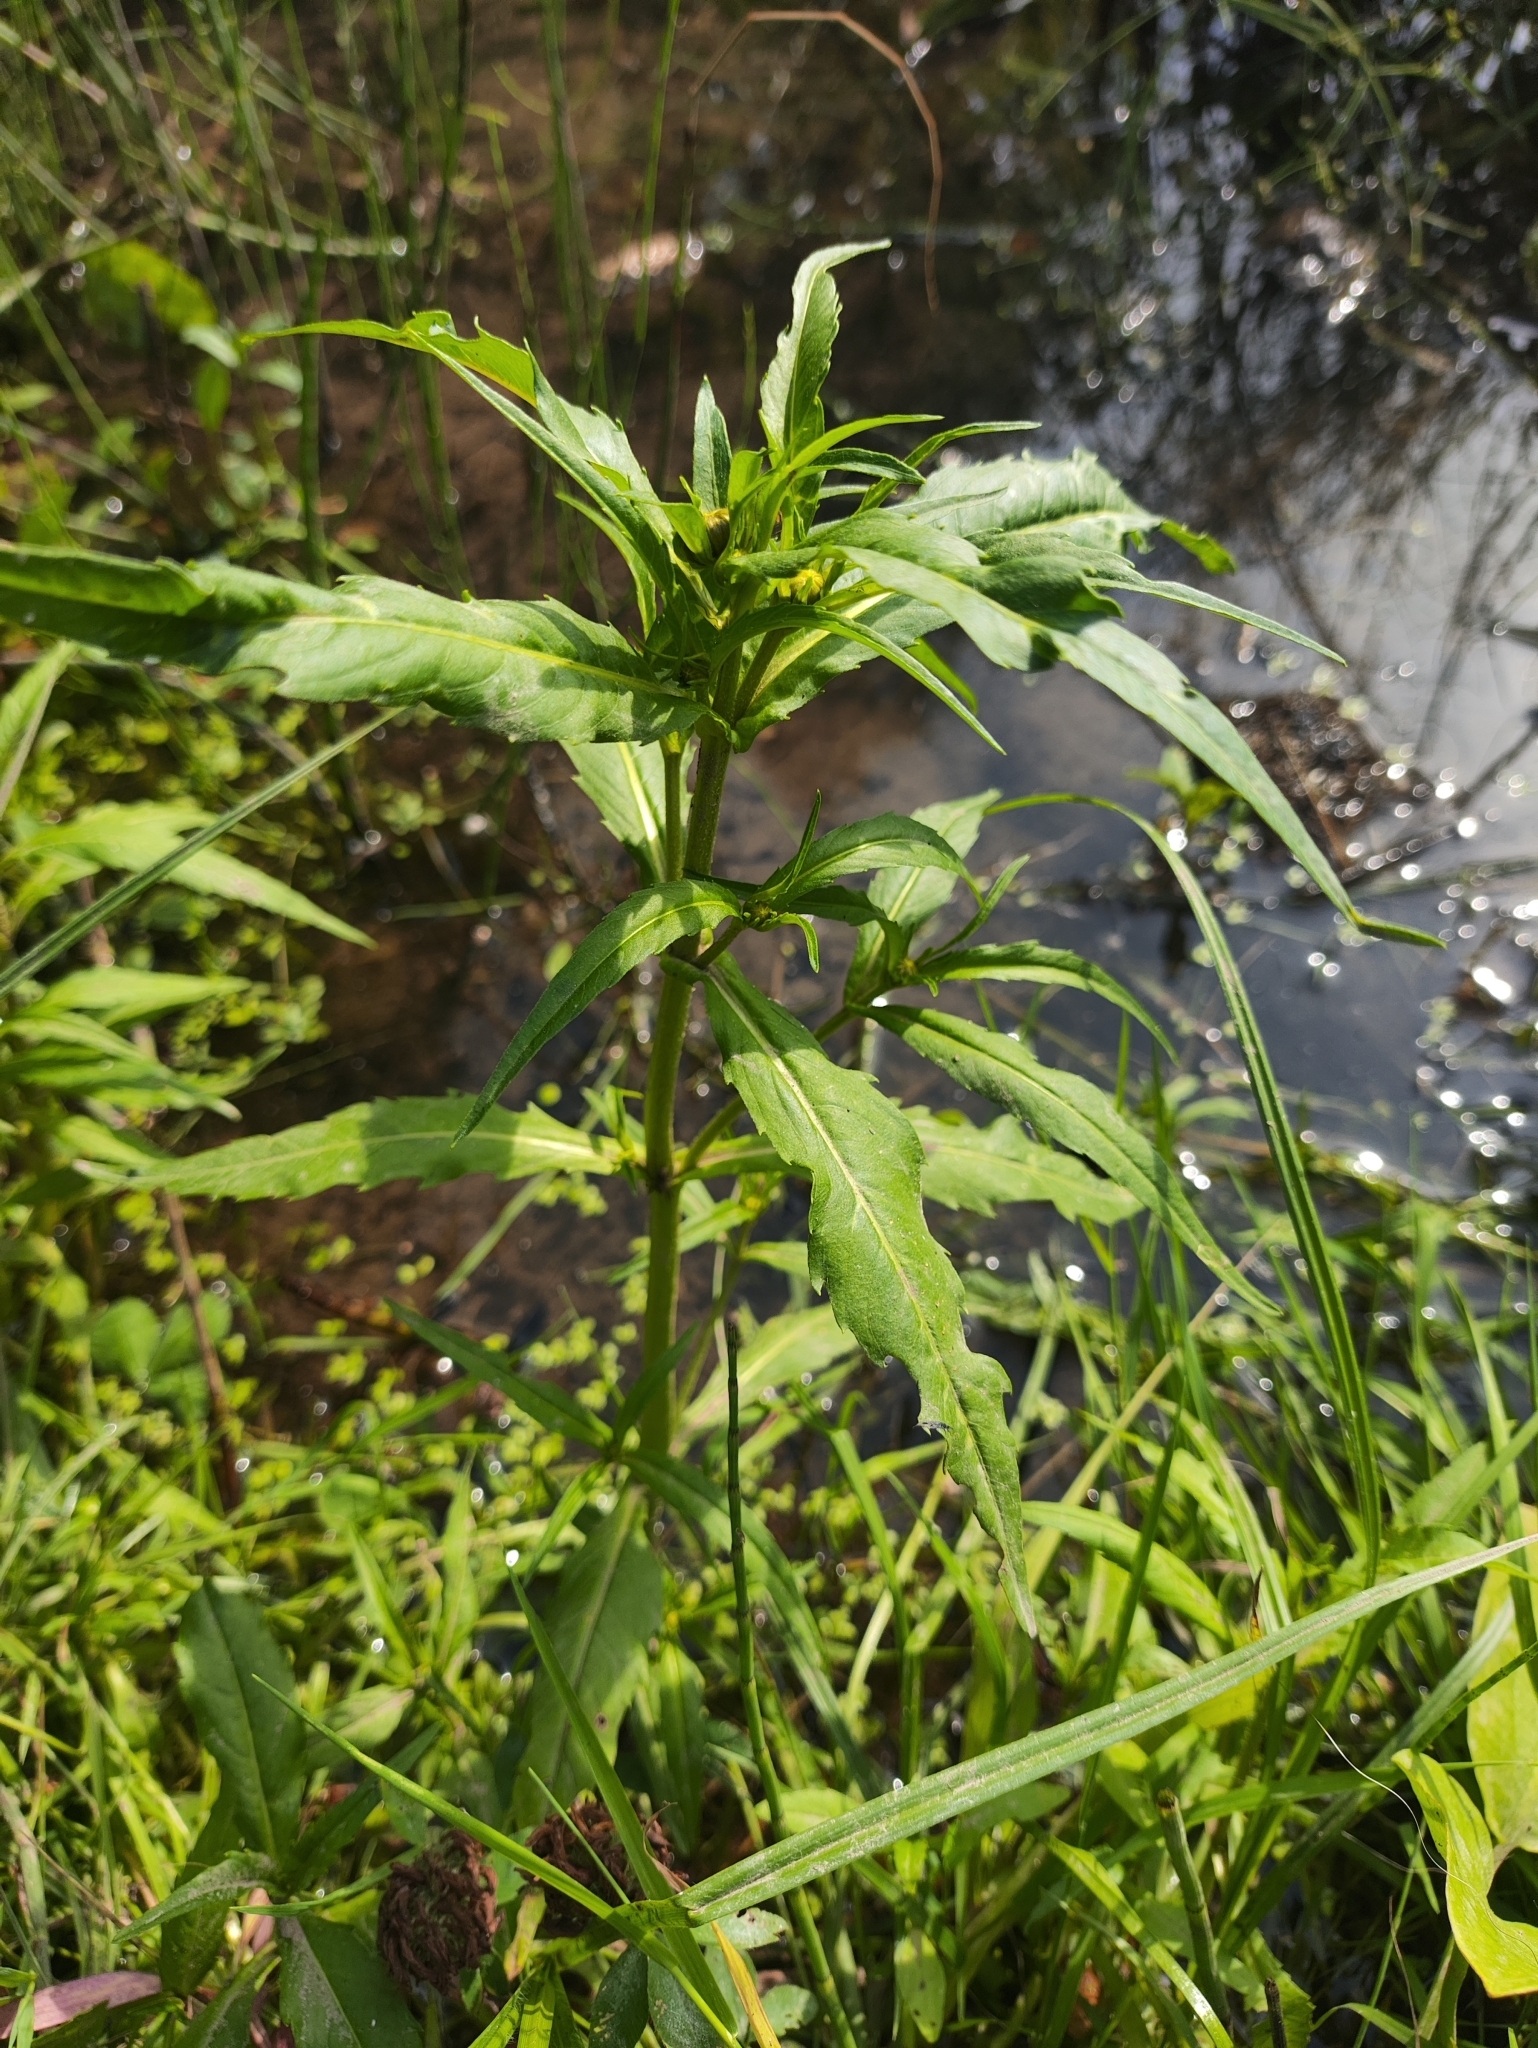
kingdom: Plantae
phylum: Tracheophyta
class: Magnoliopsida
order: Asterales
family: Asteraceae
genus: Bidens
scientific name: Bidens cernua
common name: Nodding bur-marigold
